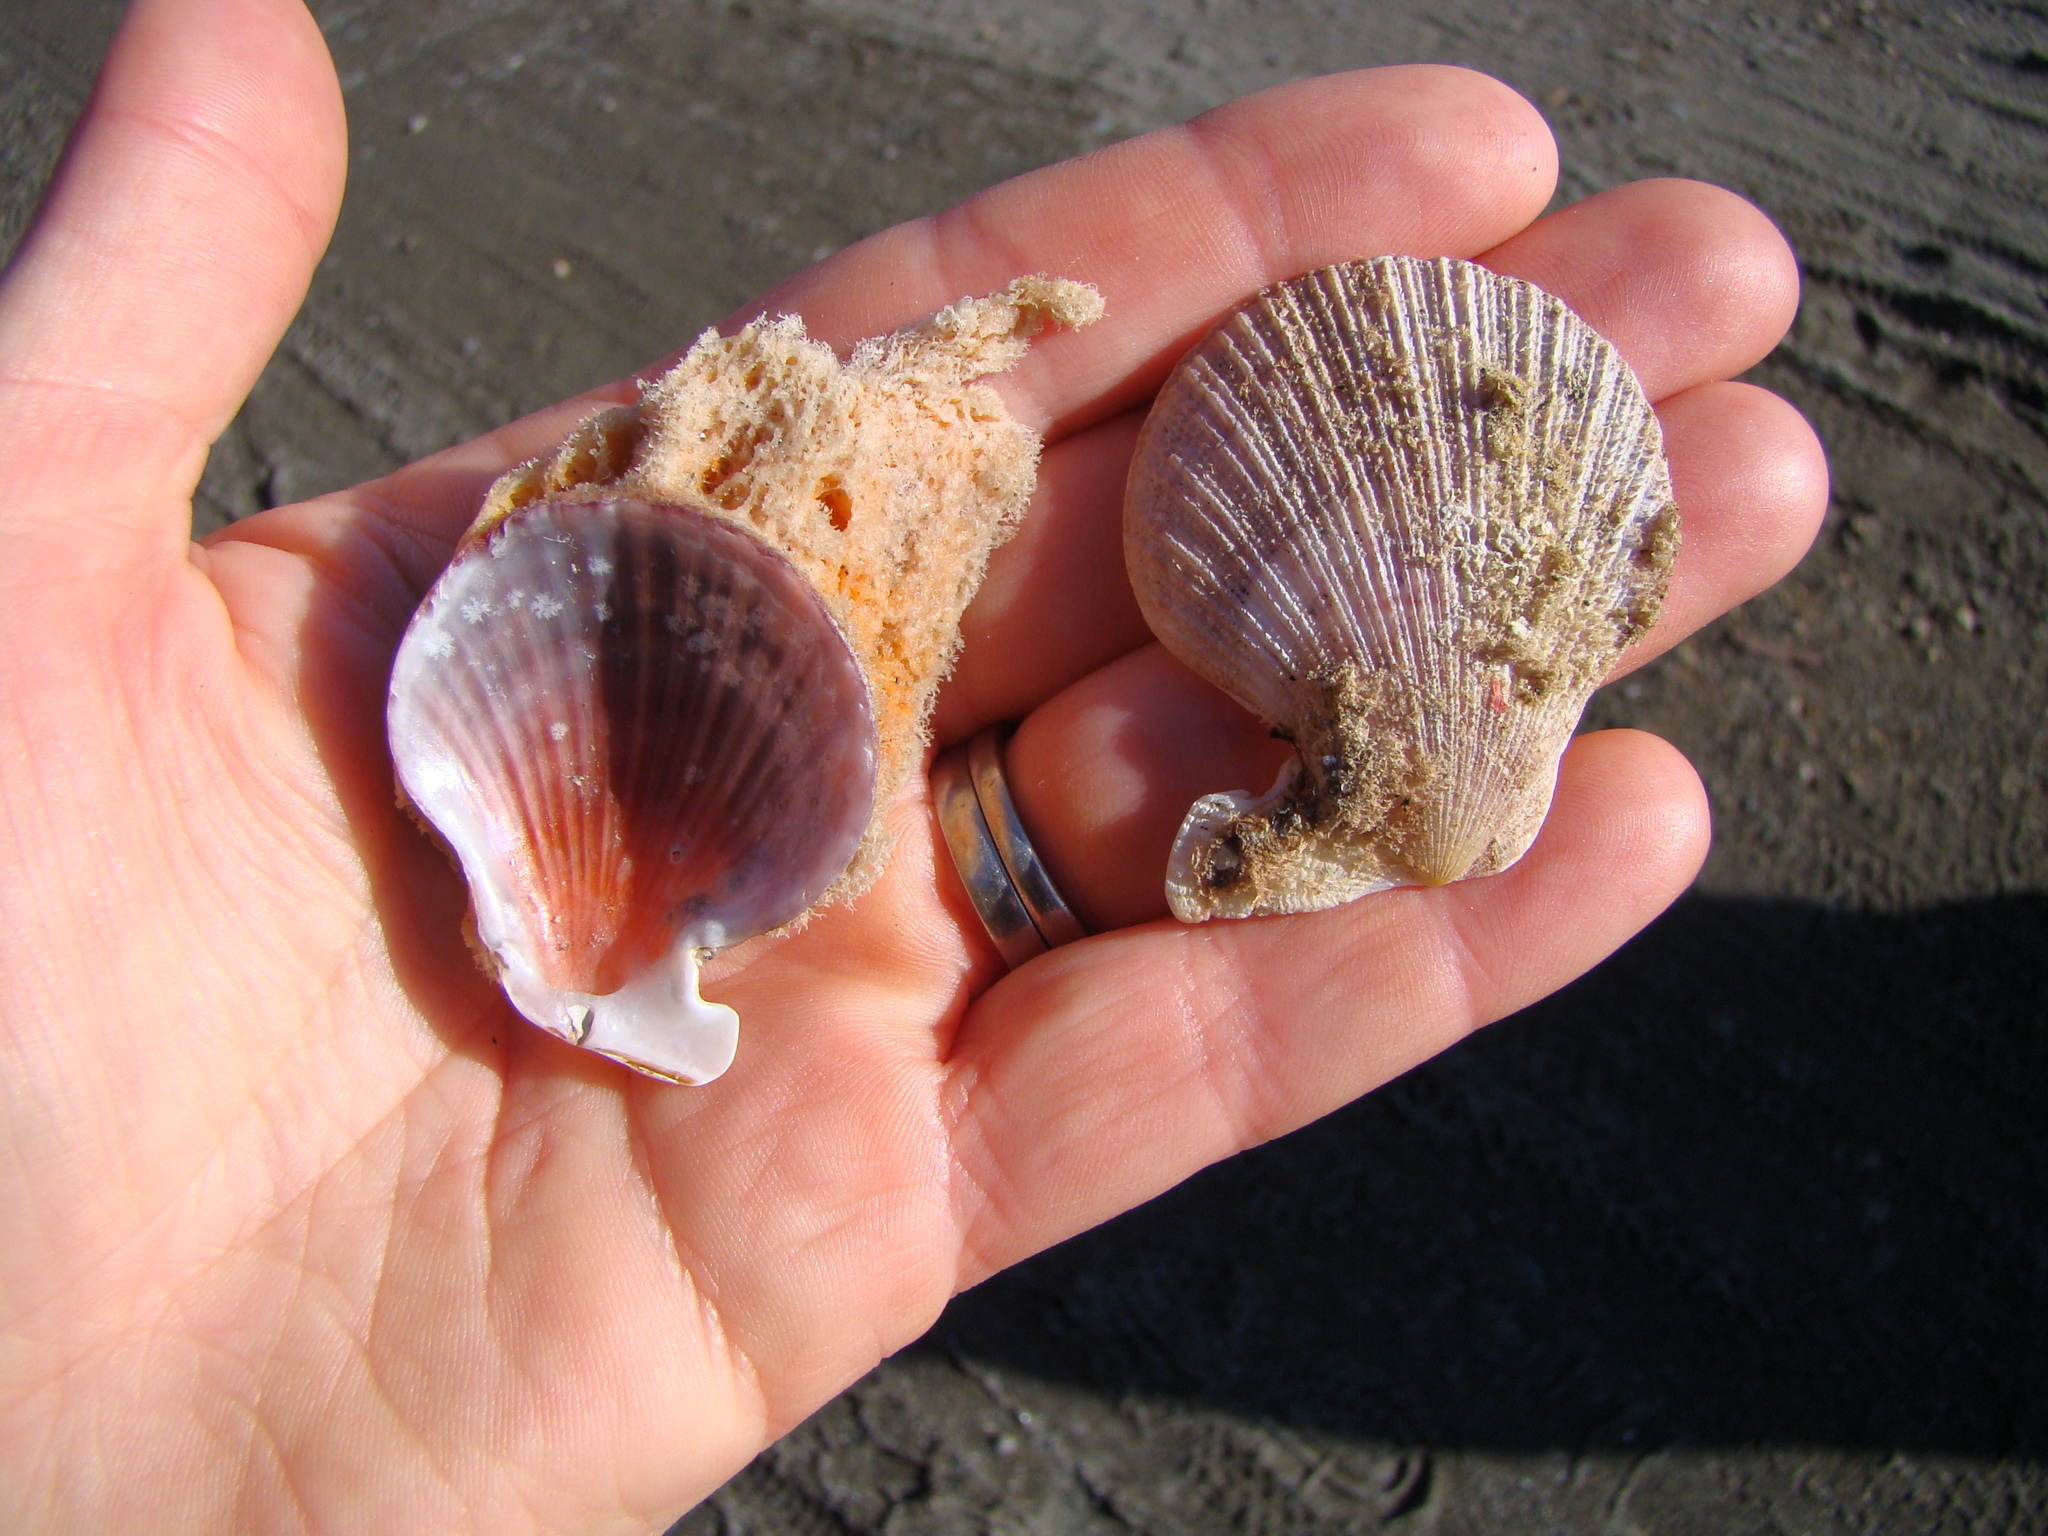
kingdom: Animalia
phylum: Mollusca
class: Bivalvia
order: Pectinida
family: Pectinidae
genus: Talochlamys
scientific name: Talochlamys zelandiae
